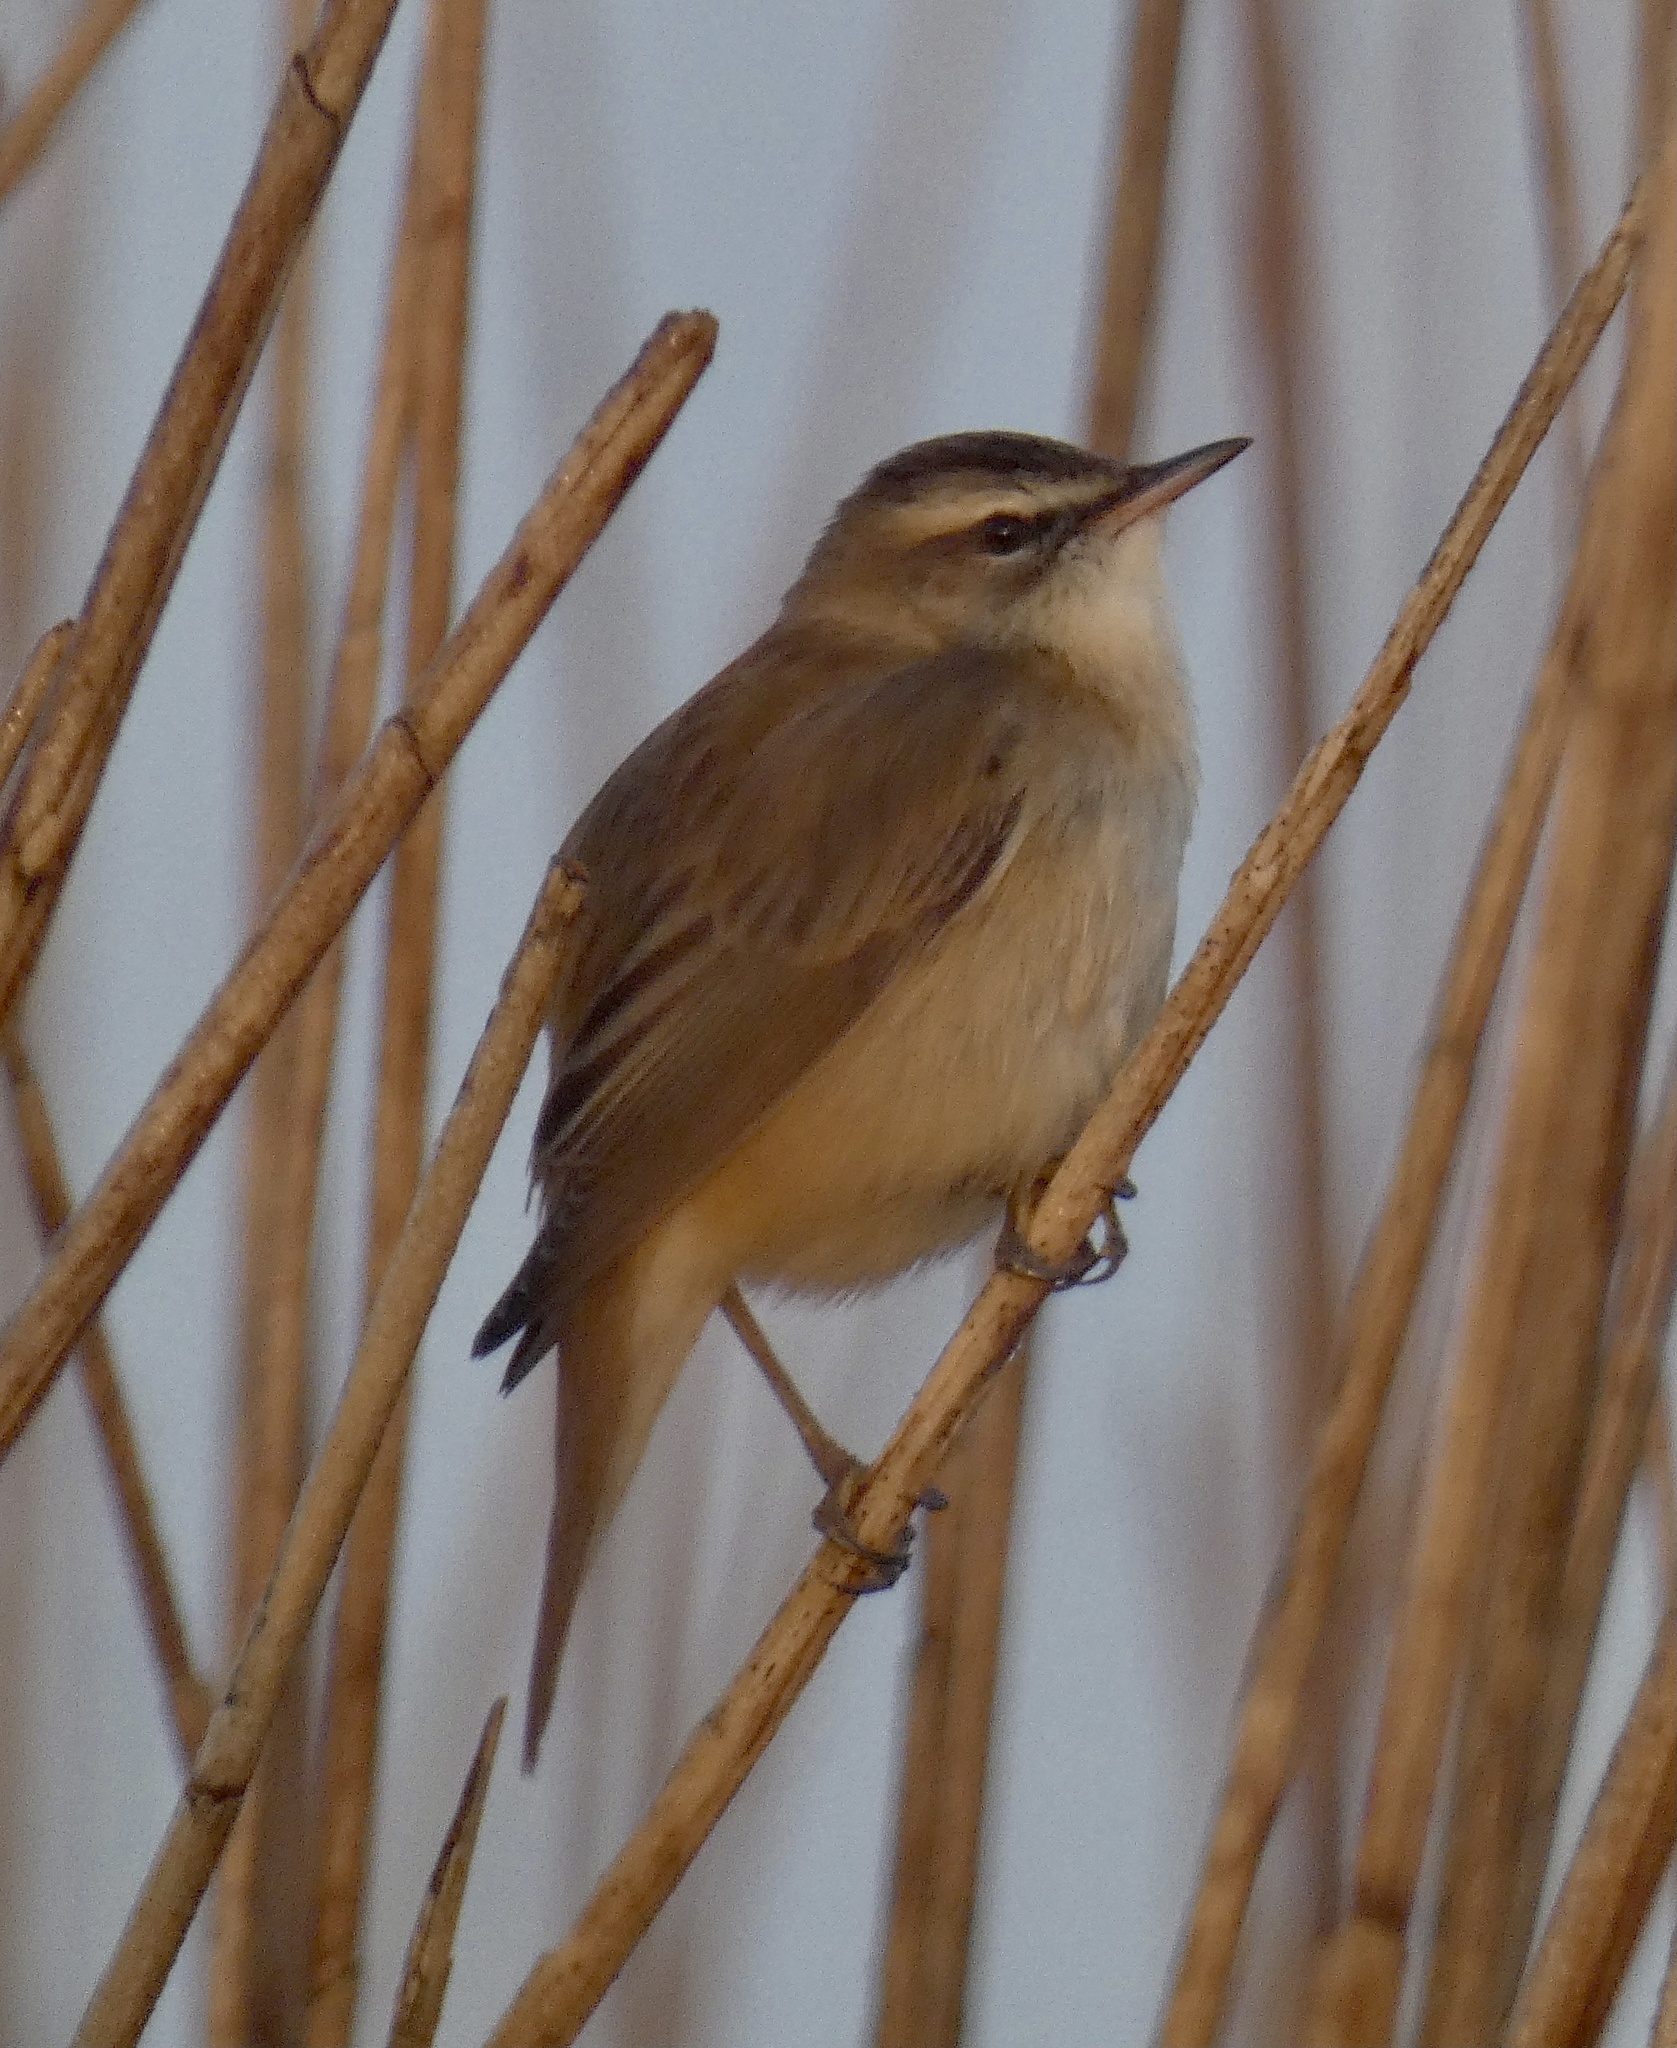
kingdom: Animalia
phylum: Chordata
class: Aves
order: Passeriformes
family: Acrocephalidae
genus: Acrocephalus
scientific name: Acrocephalus schoenobaenus
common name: Sedge warbler
